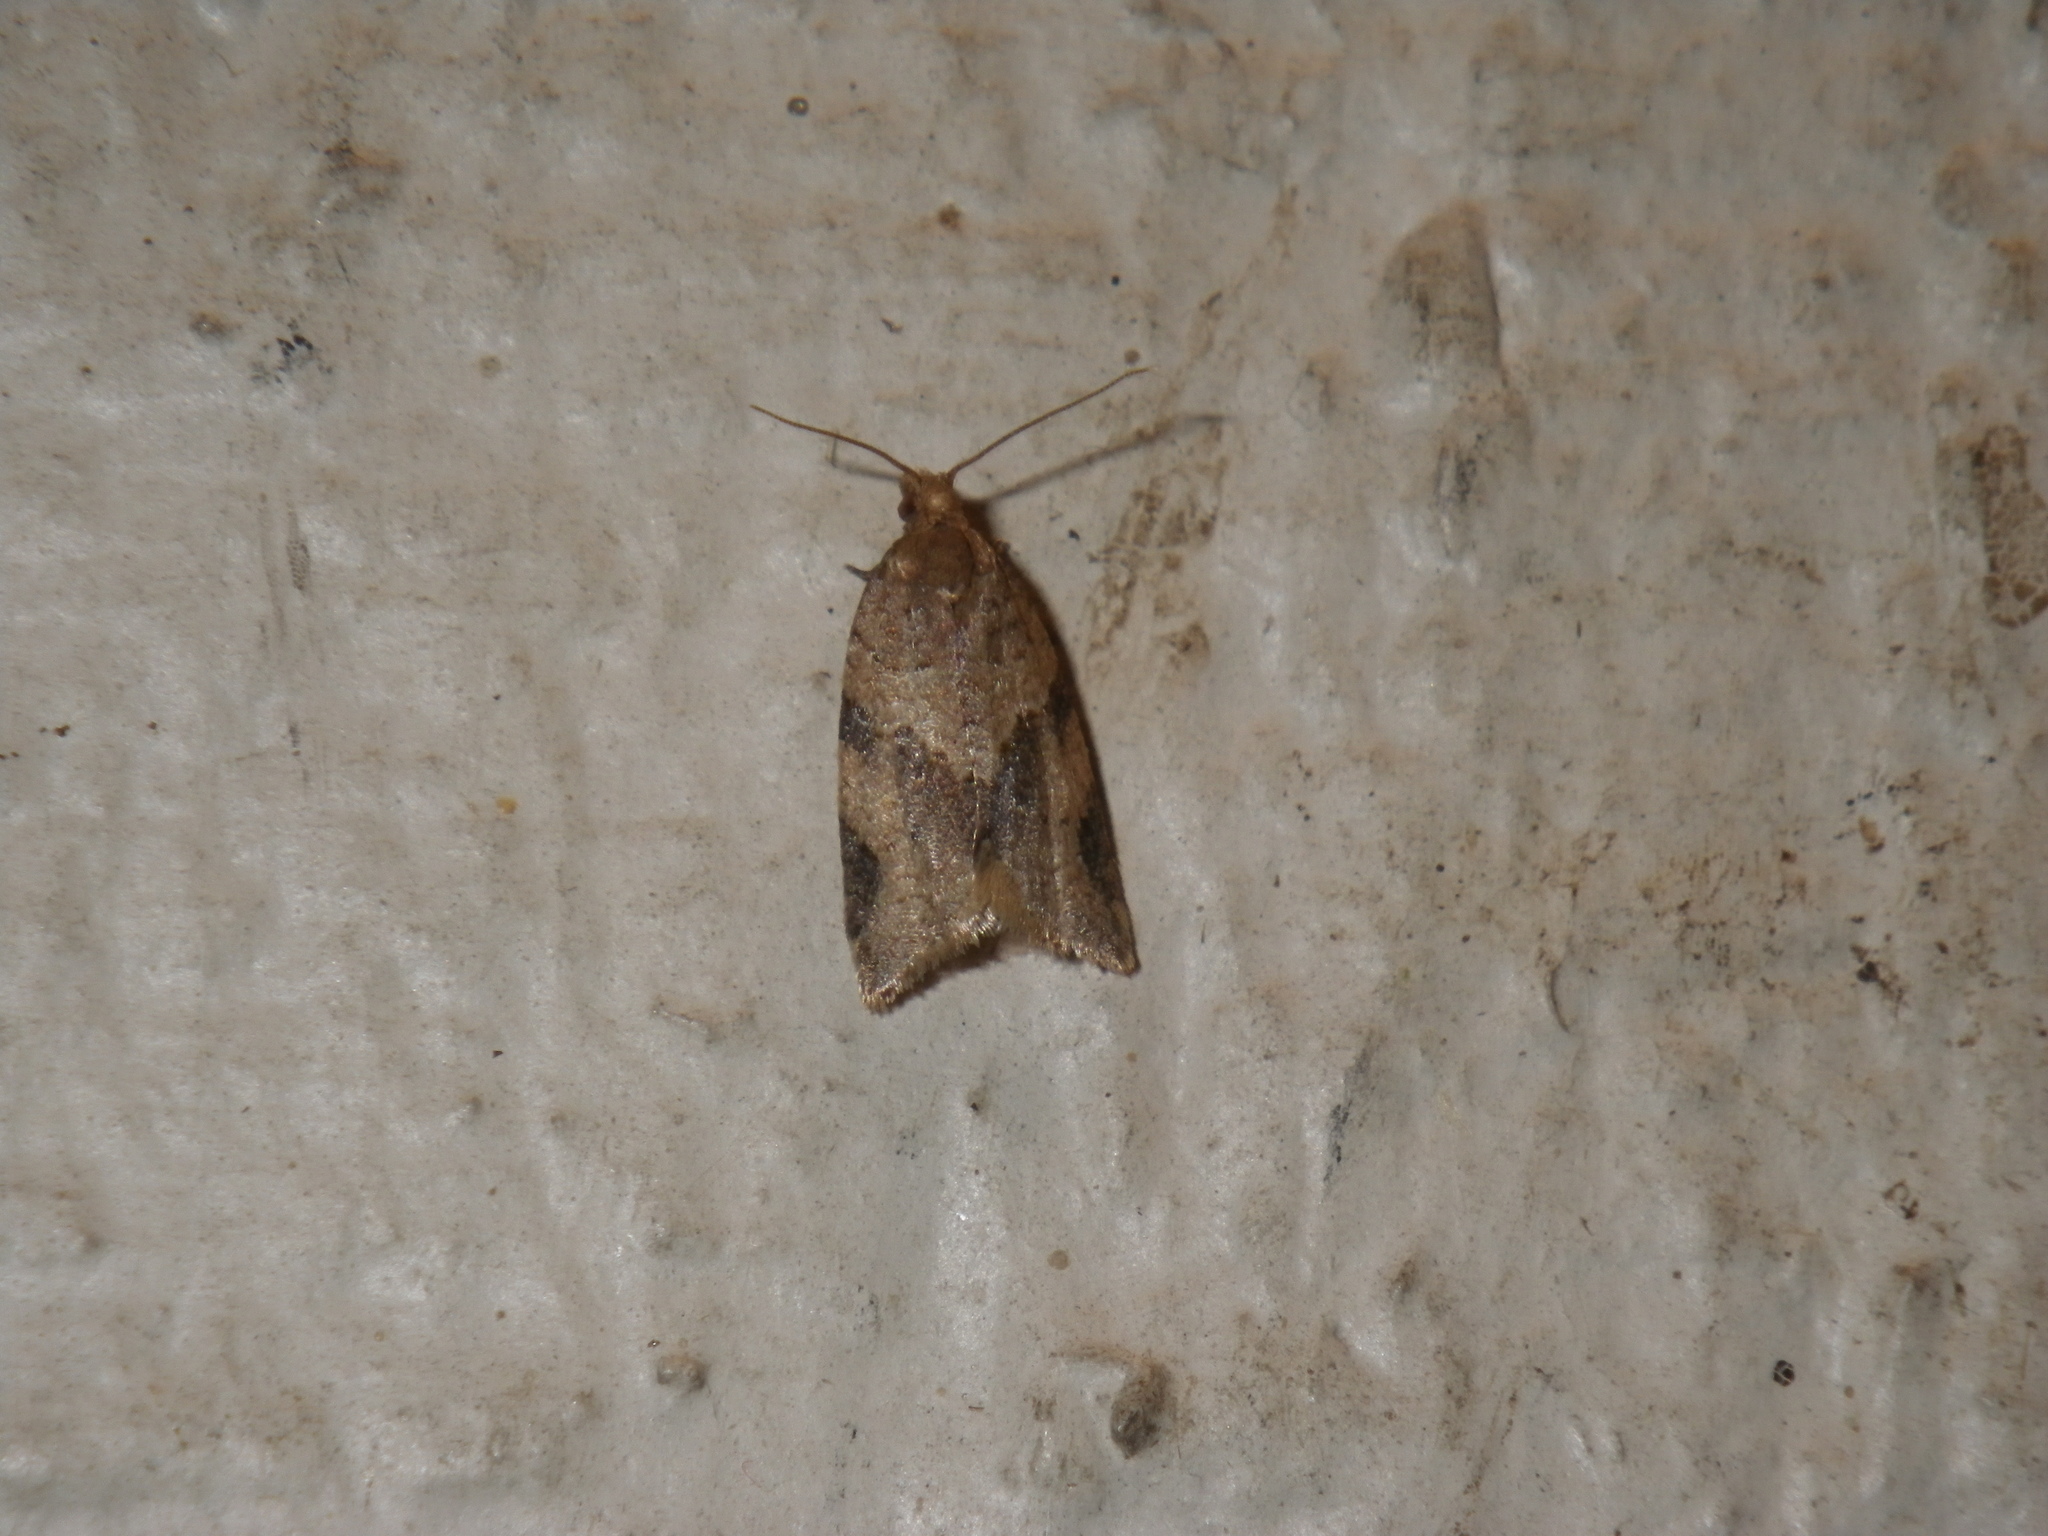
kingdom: Animalia
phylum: Arthropoda
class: Insecta
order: Lepidoptera
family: Tortricidae
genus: Clepsis
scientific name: Clepsis peritana
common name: Garden tortrix
